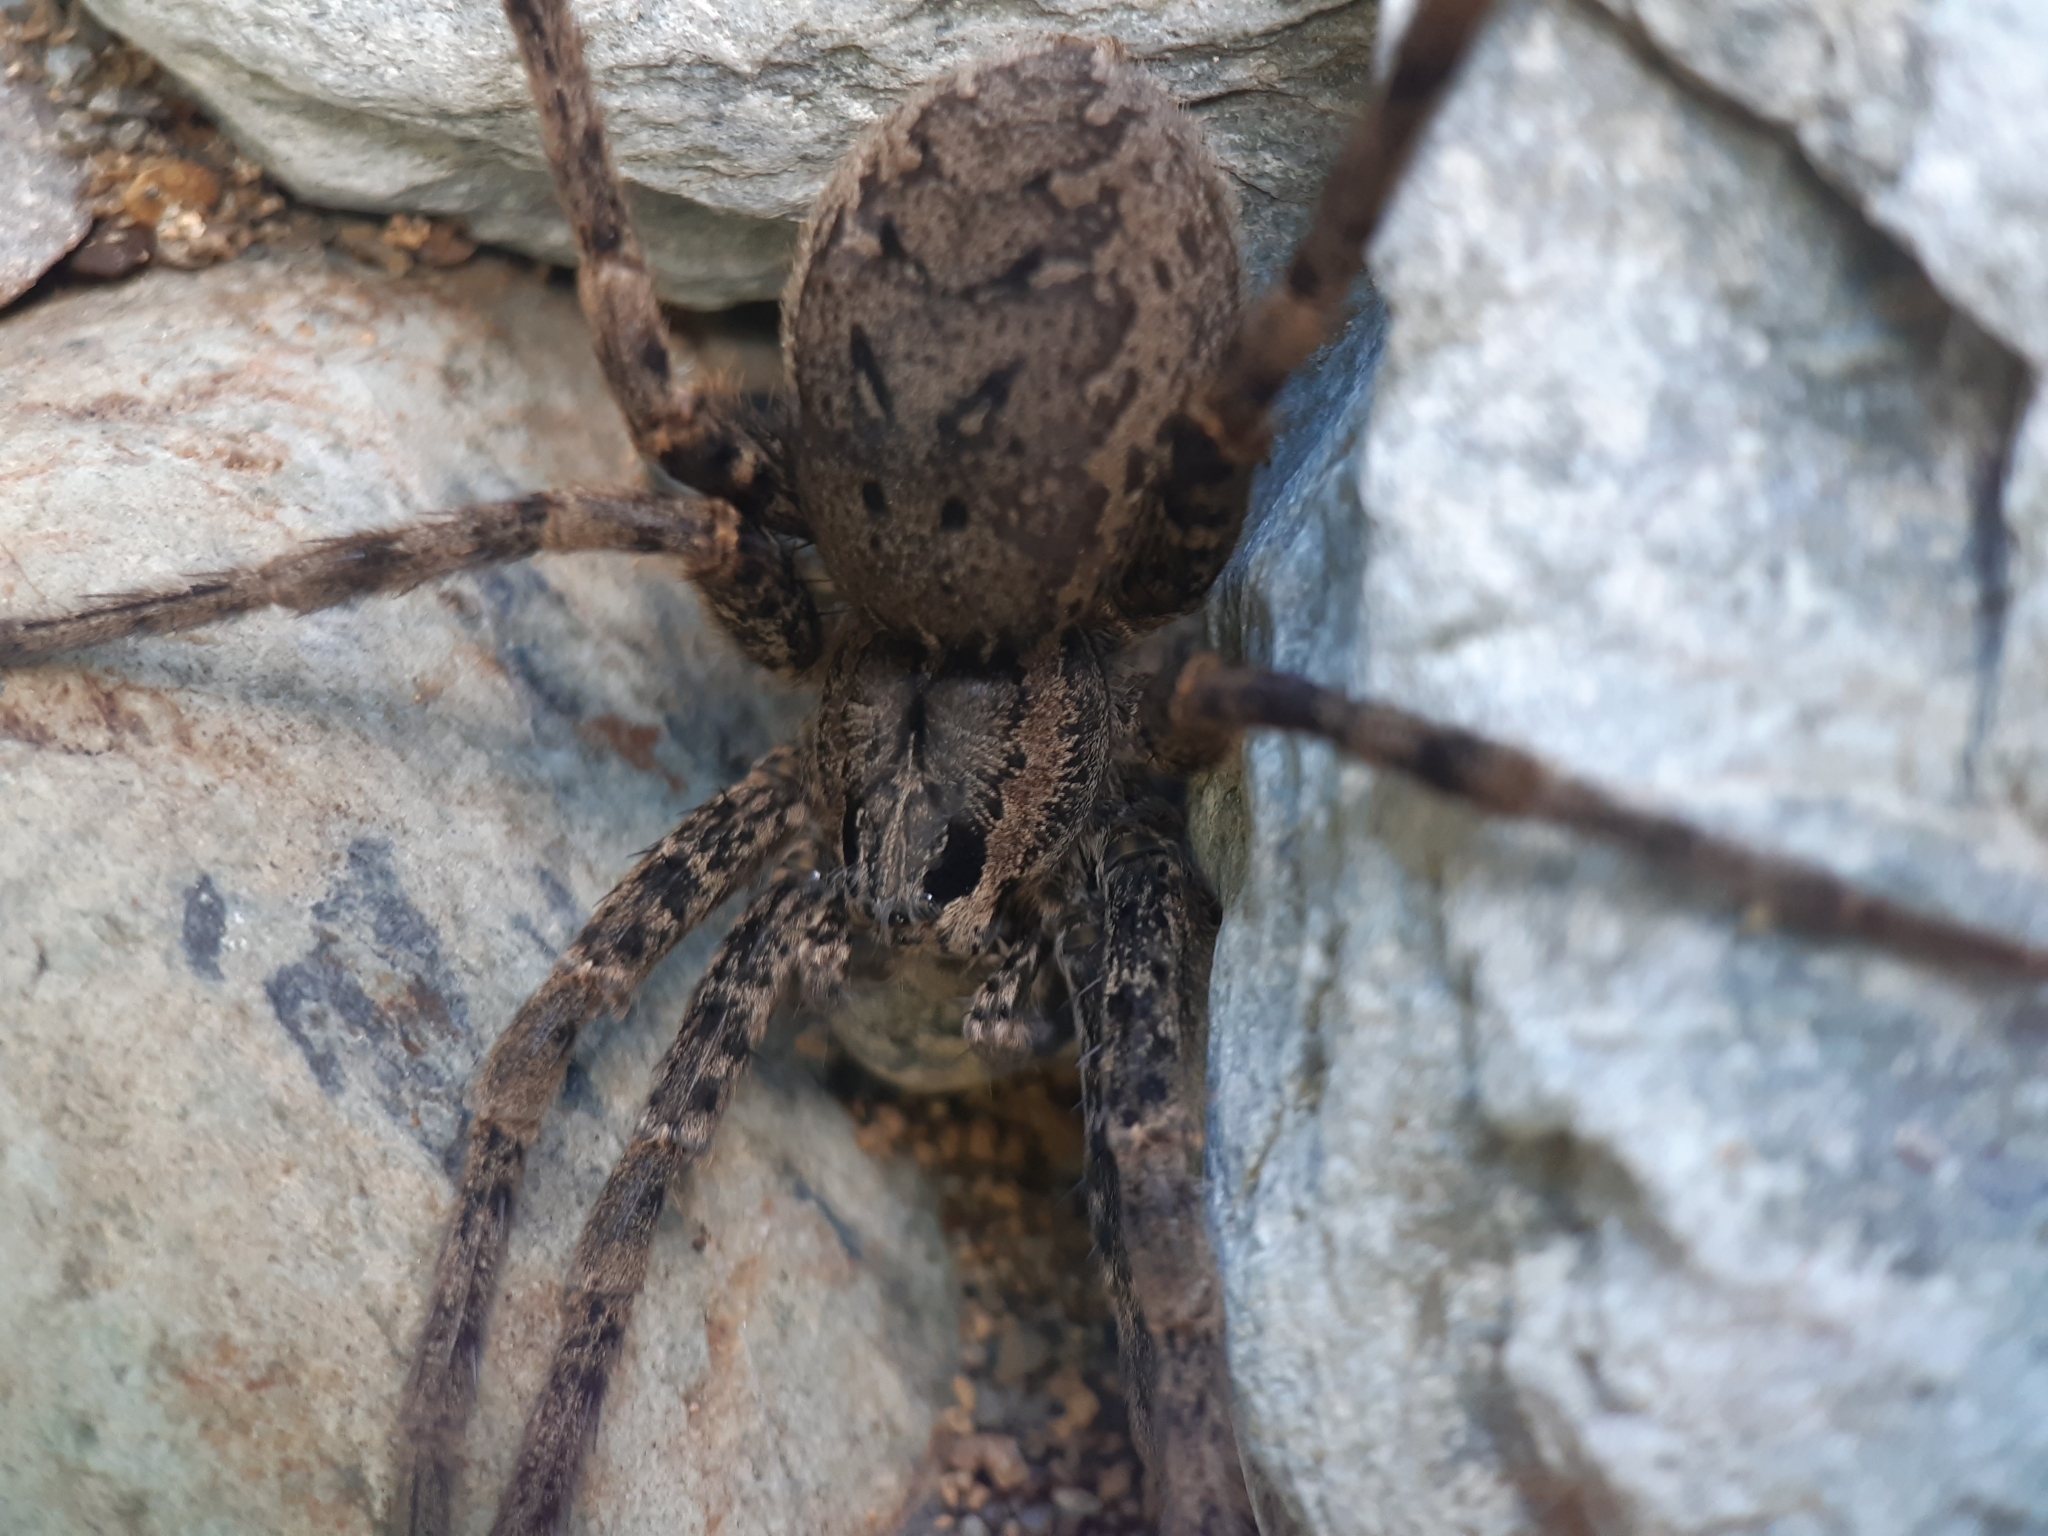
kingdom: Animalia
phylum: Arthropoda
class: Arachnida
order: Araneae
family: Pisauridae
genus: Dolomedes
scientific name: Dolomedes dondalei
